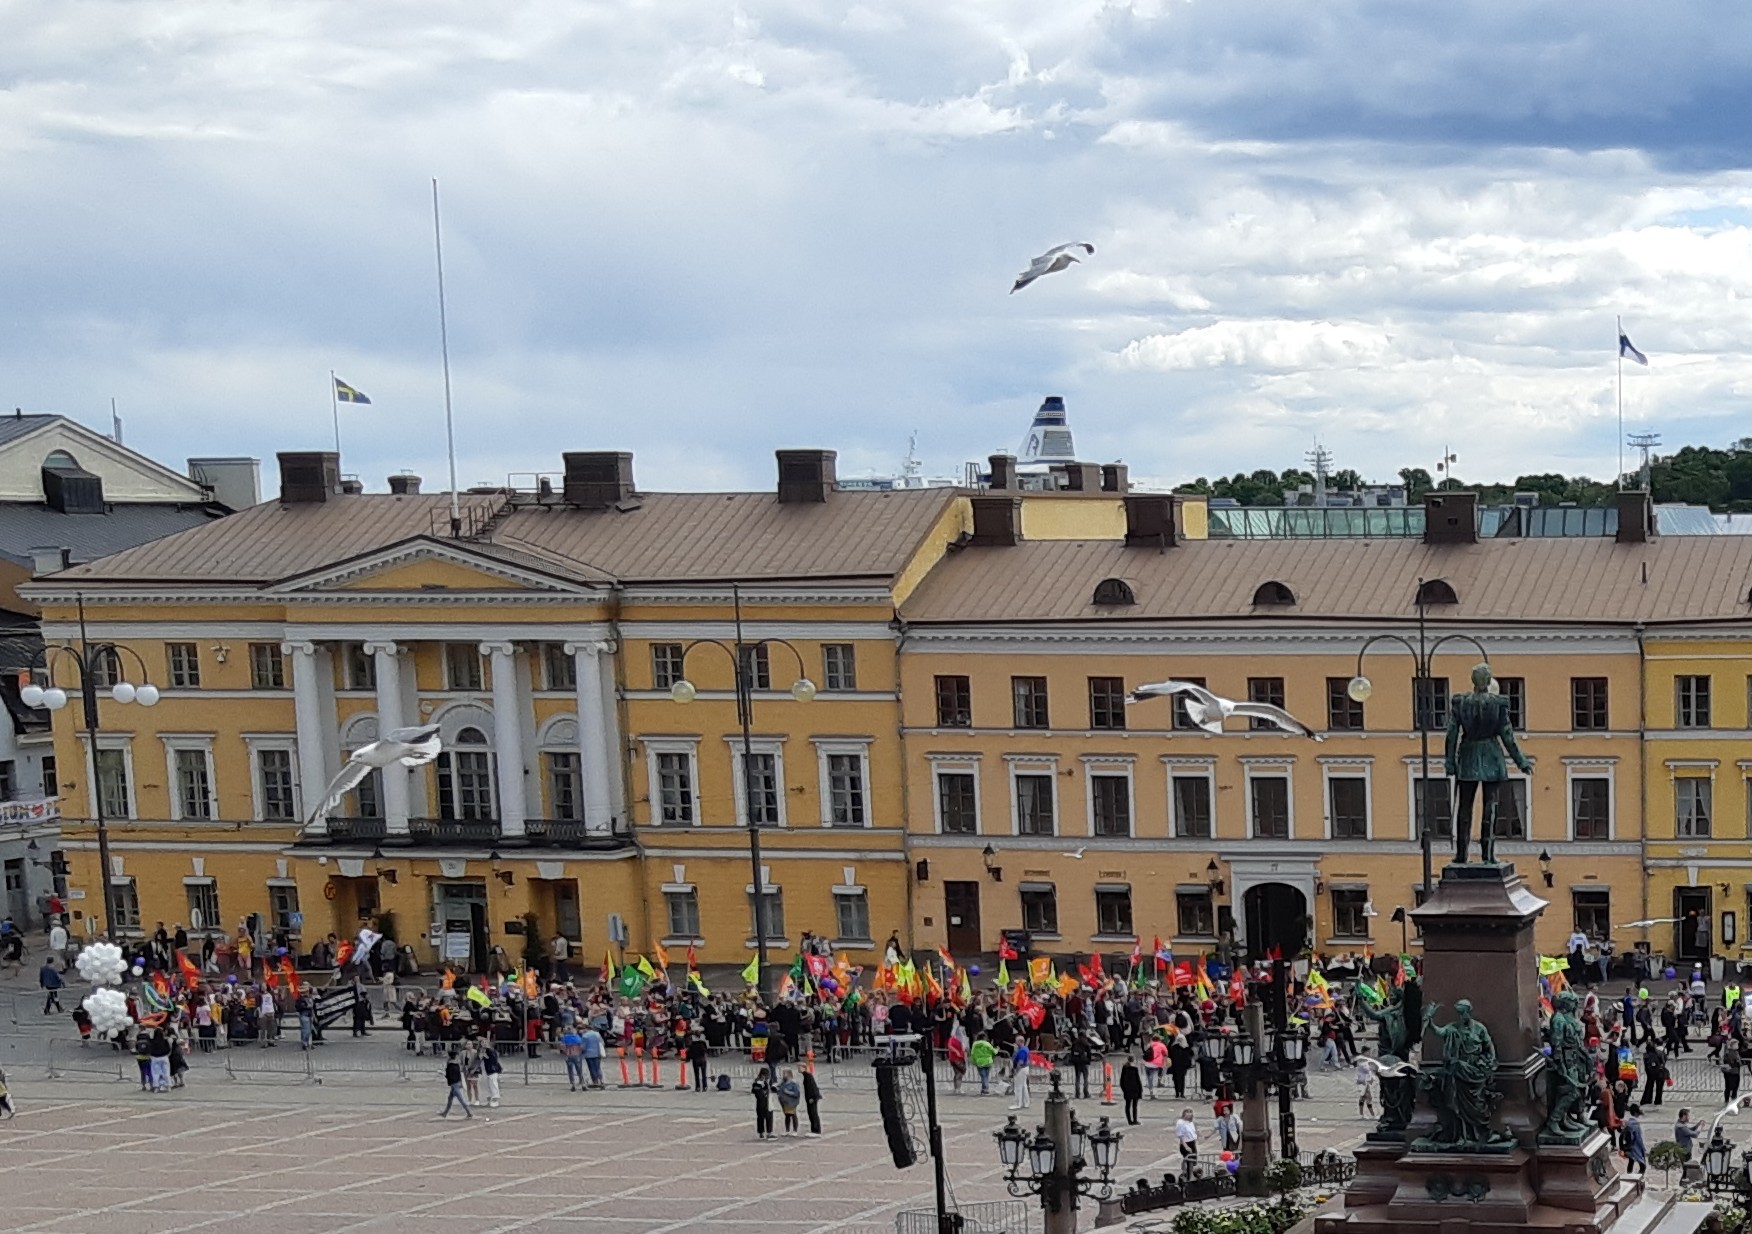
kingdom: Animalia
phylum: Chordata
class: Aves
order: Charadriiformes
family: Laridae
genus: Larus
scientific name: Larus canus
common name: Mew gull
